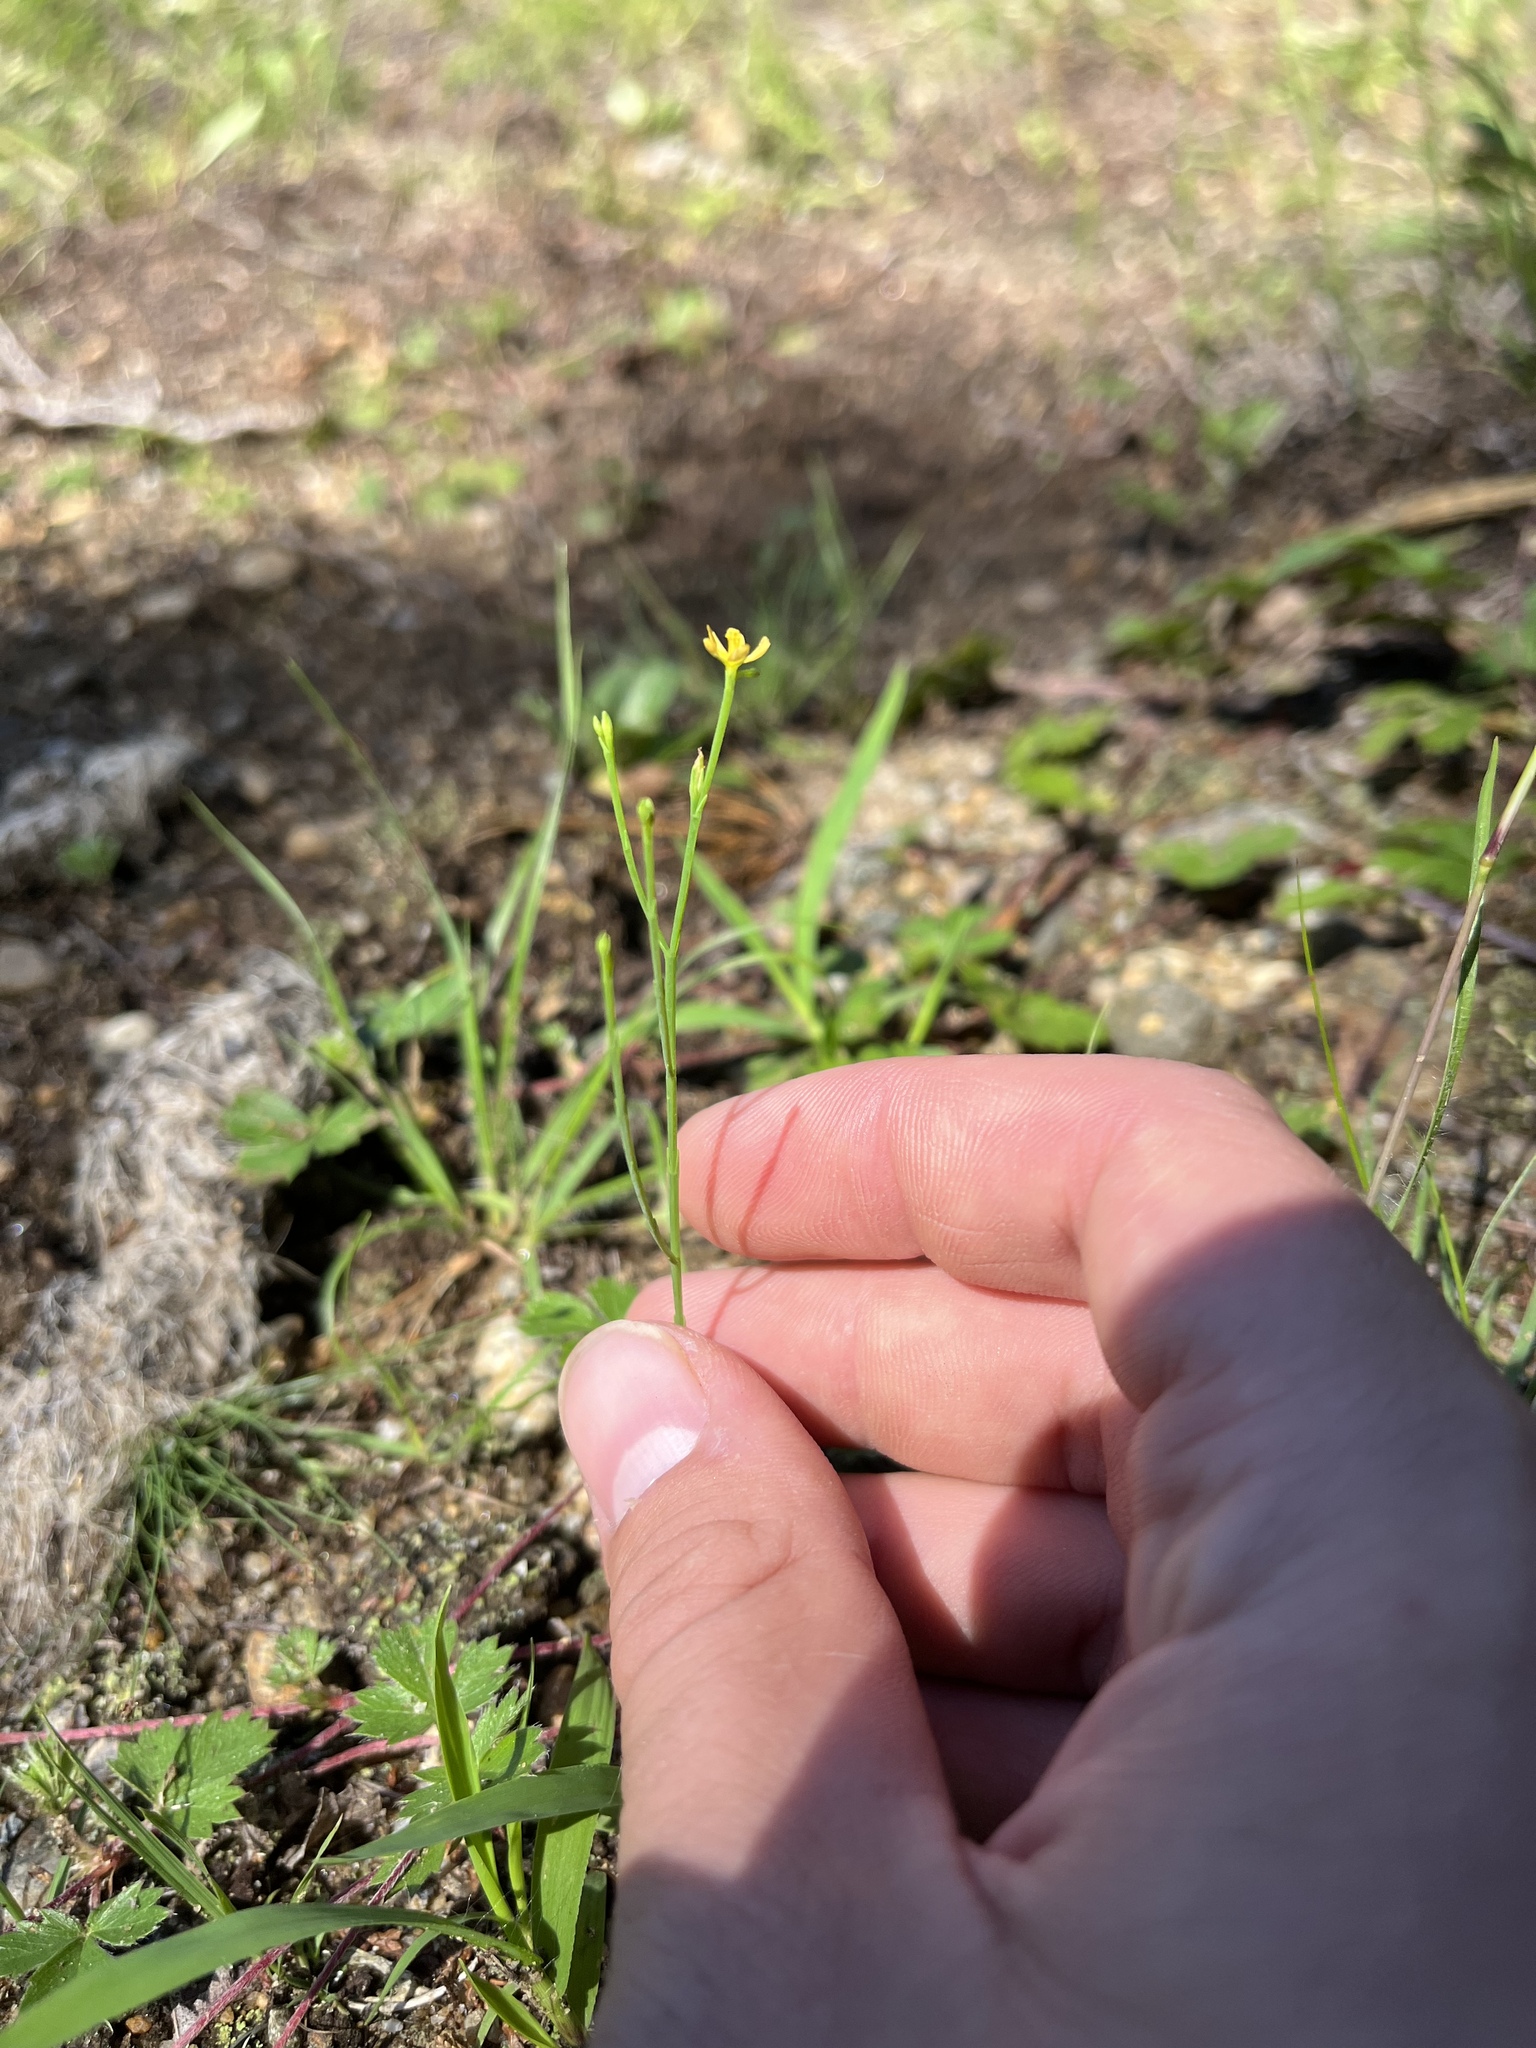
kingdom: Plantae
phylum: Tracheophyta
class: Magnoliopsida
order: Malpighiales
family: Hypericaceae
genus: Hypericum
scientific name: Hypericum gentianoides
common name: Gentian-leaved st. john's-wort
